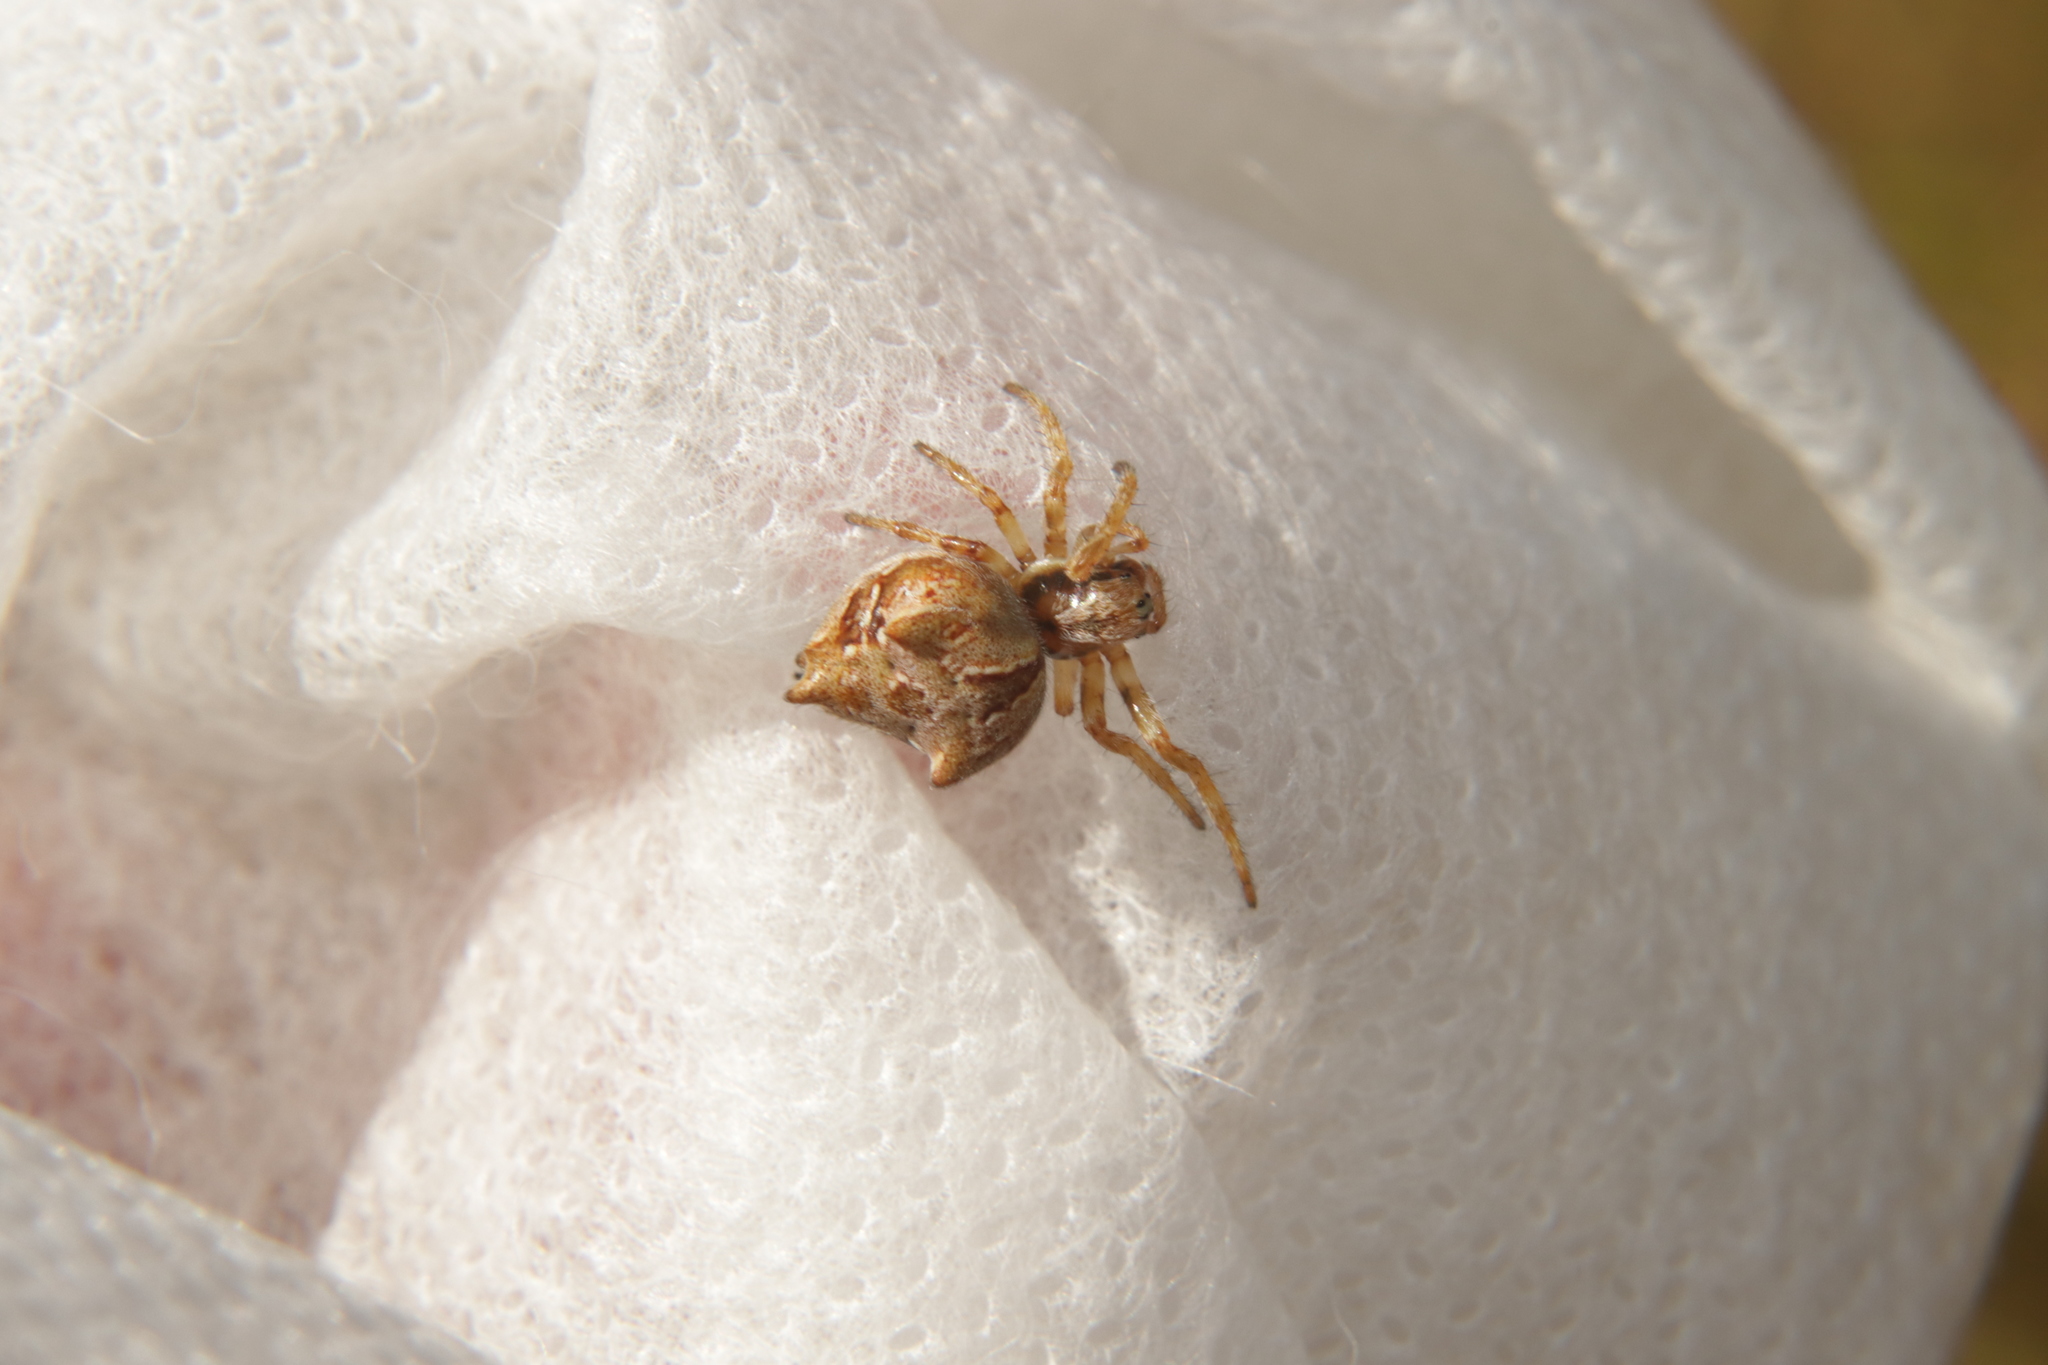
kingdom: Animalia
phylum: Arthropoda
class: Arachnida
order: Araneae
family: Araneidae
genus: Eriophora
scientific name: Eriophora pustulosa
